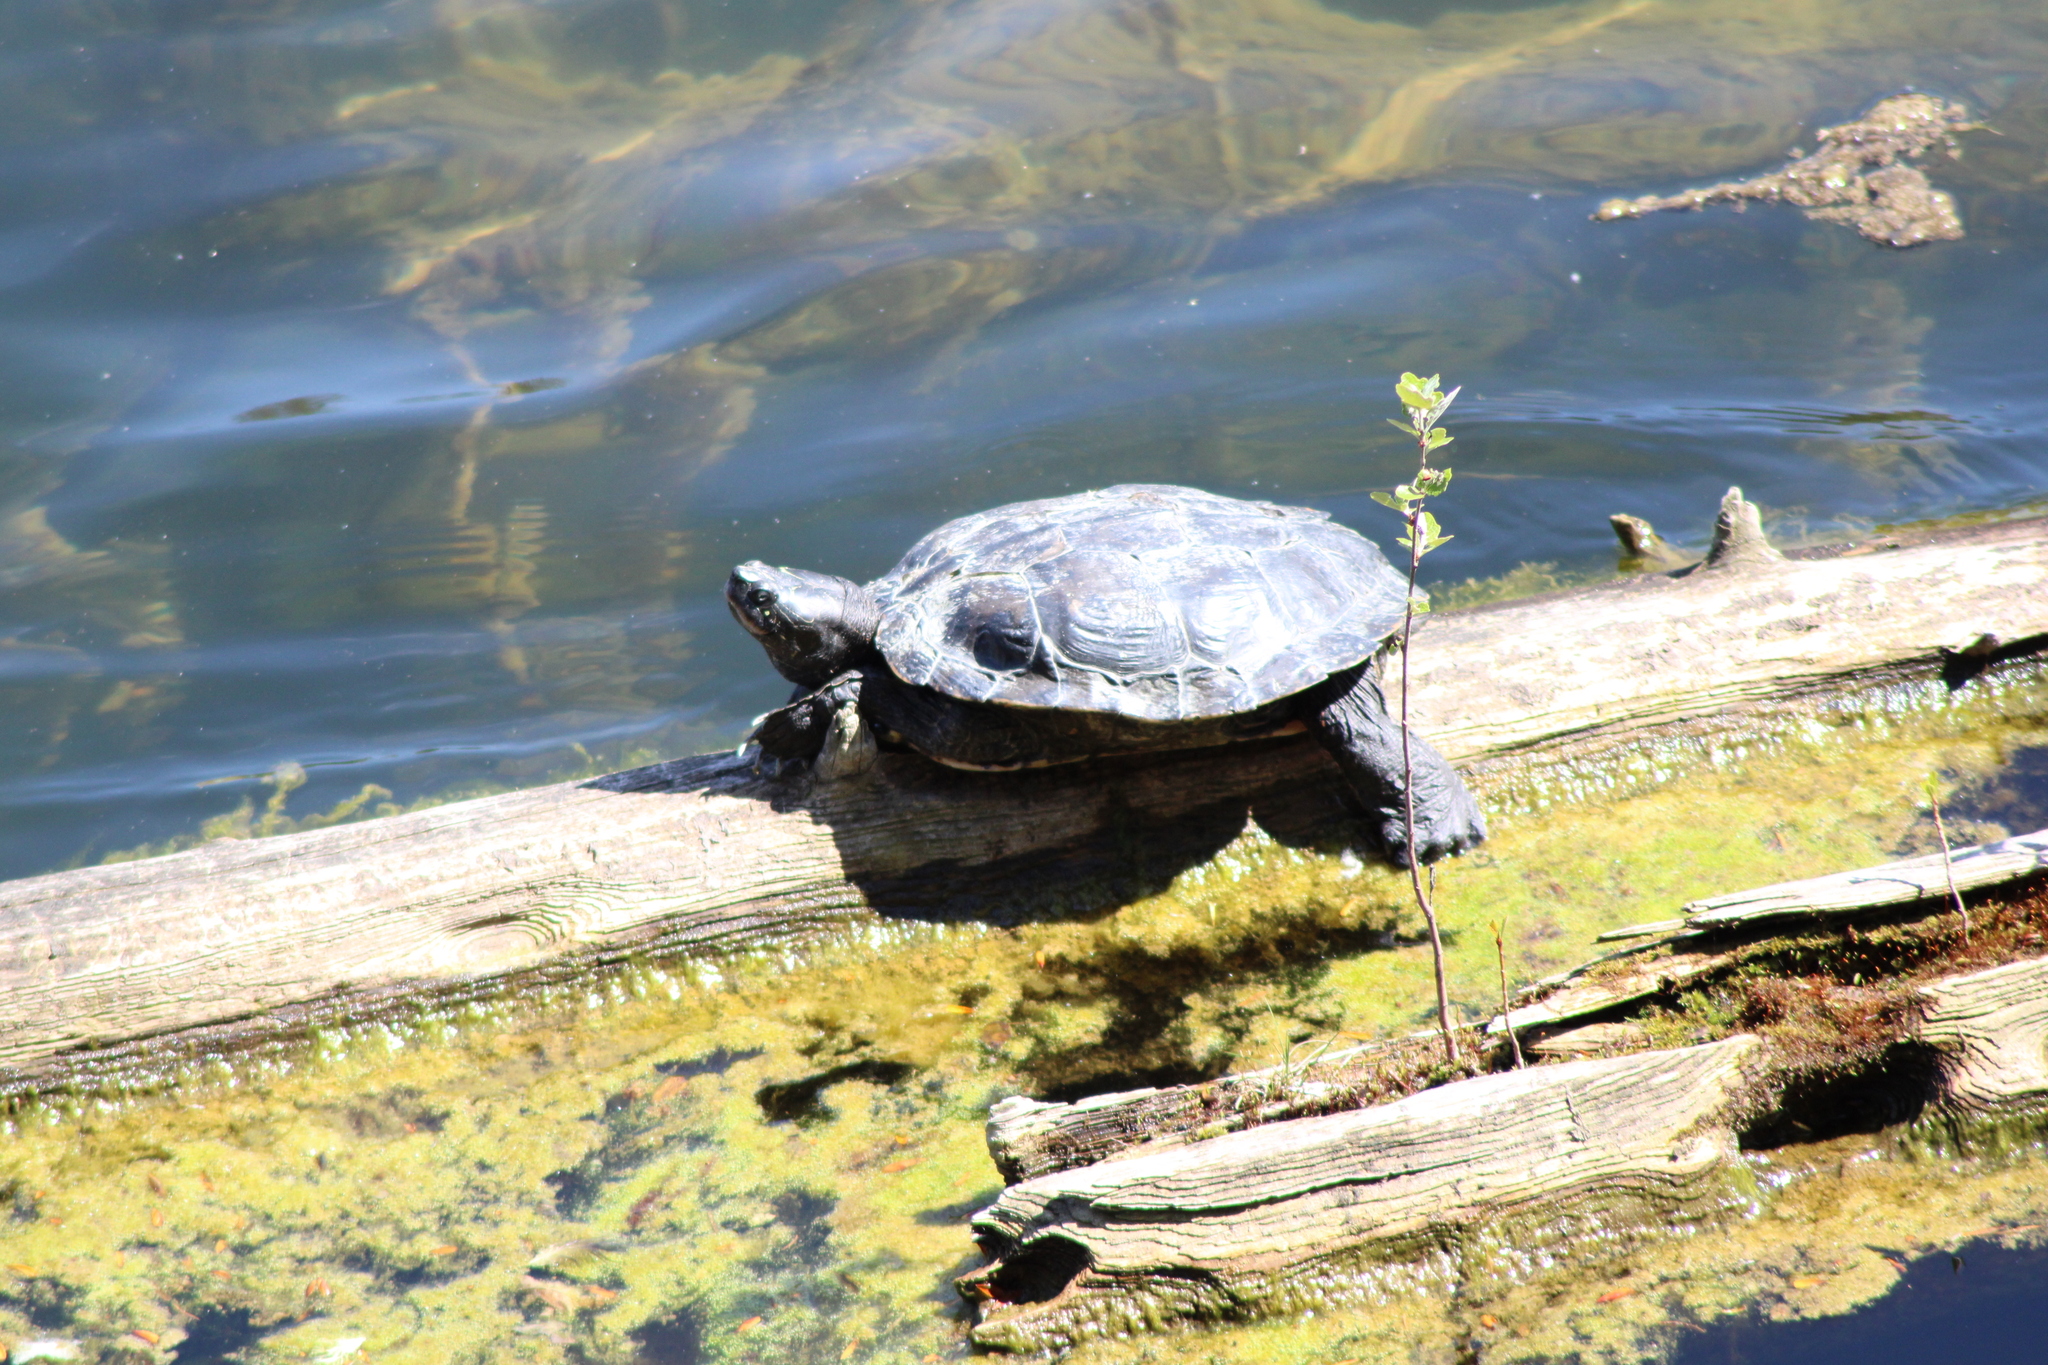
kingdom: Animalia
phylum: Chordata
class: Testudines
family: Emydidae
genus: Graptemys
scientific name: Graptemys pseudogeographica
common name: False map turtle
